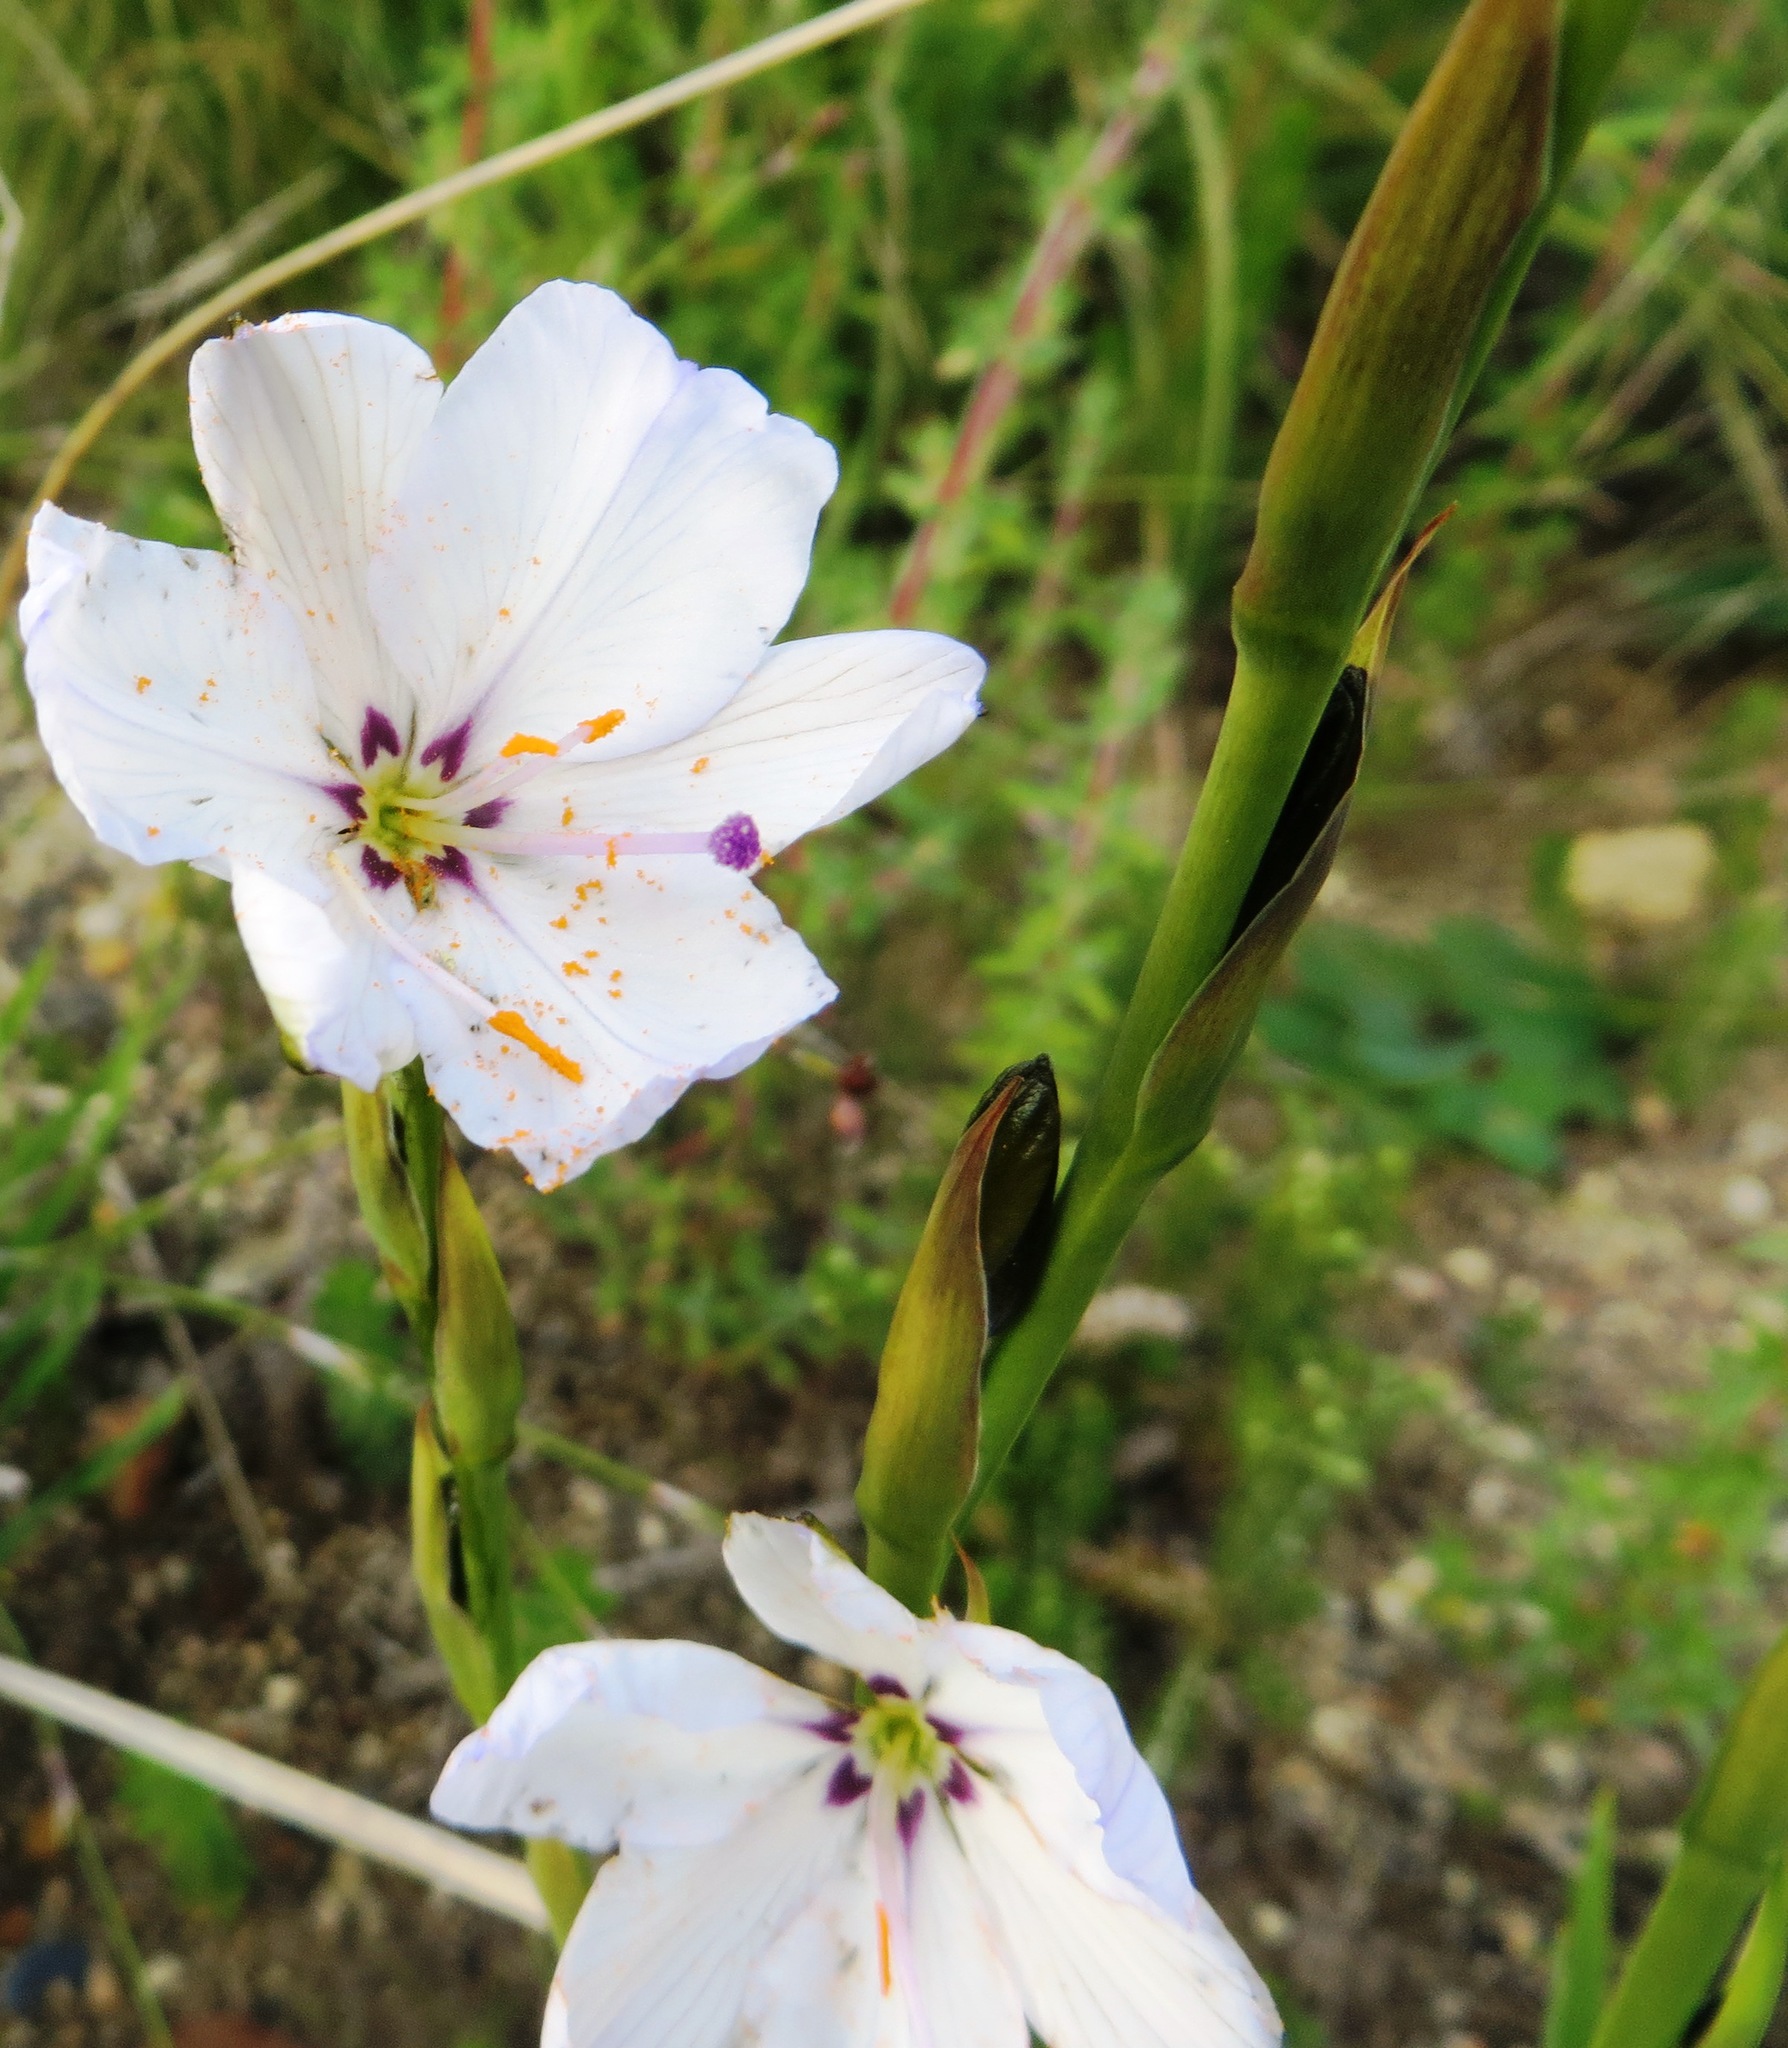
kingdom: Plantae
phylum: Tracheophyta
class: Liliopsida
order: Asparagales
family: Iridaceae
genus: Aristea
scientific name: Aristea spiralis
